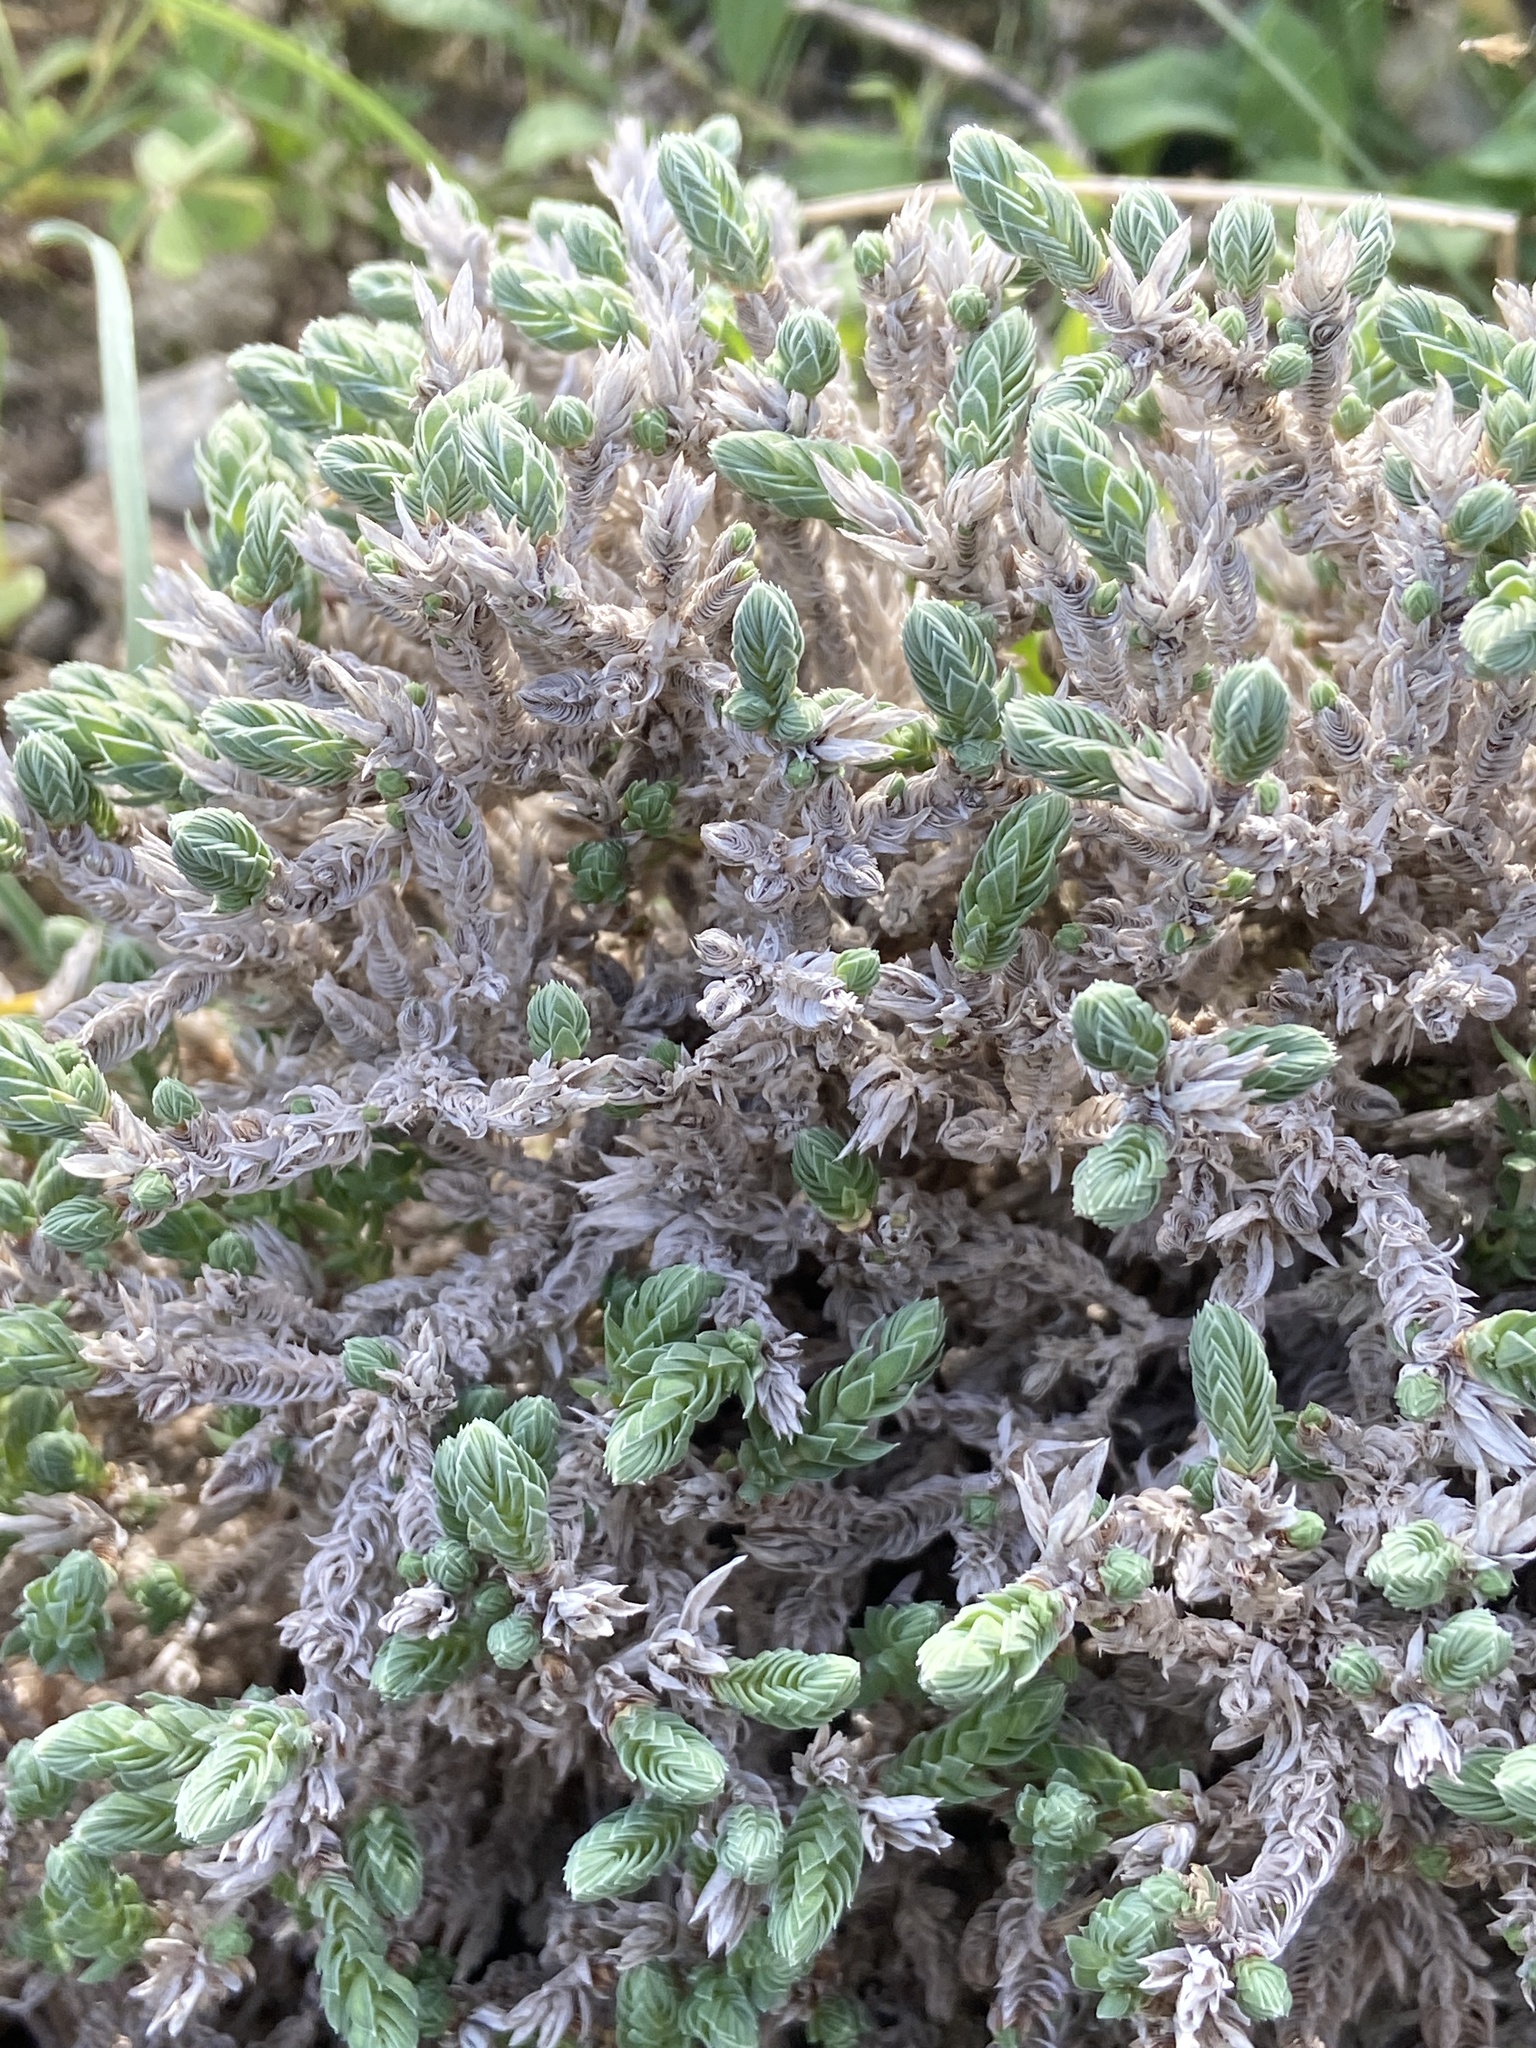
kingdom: Plantae
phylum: Tracheophyta
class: Magnoliopsida
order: Gentianales
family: Rubiaceae
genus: Crucianella
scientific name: Crucianella maritima
